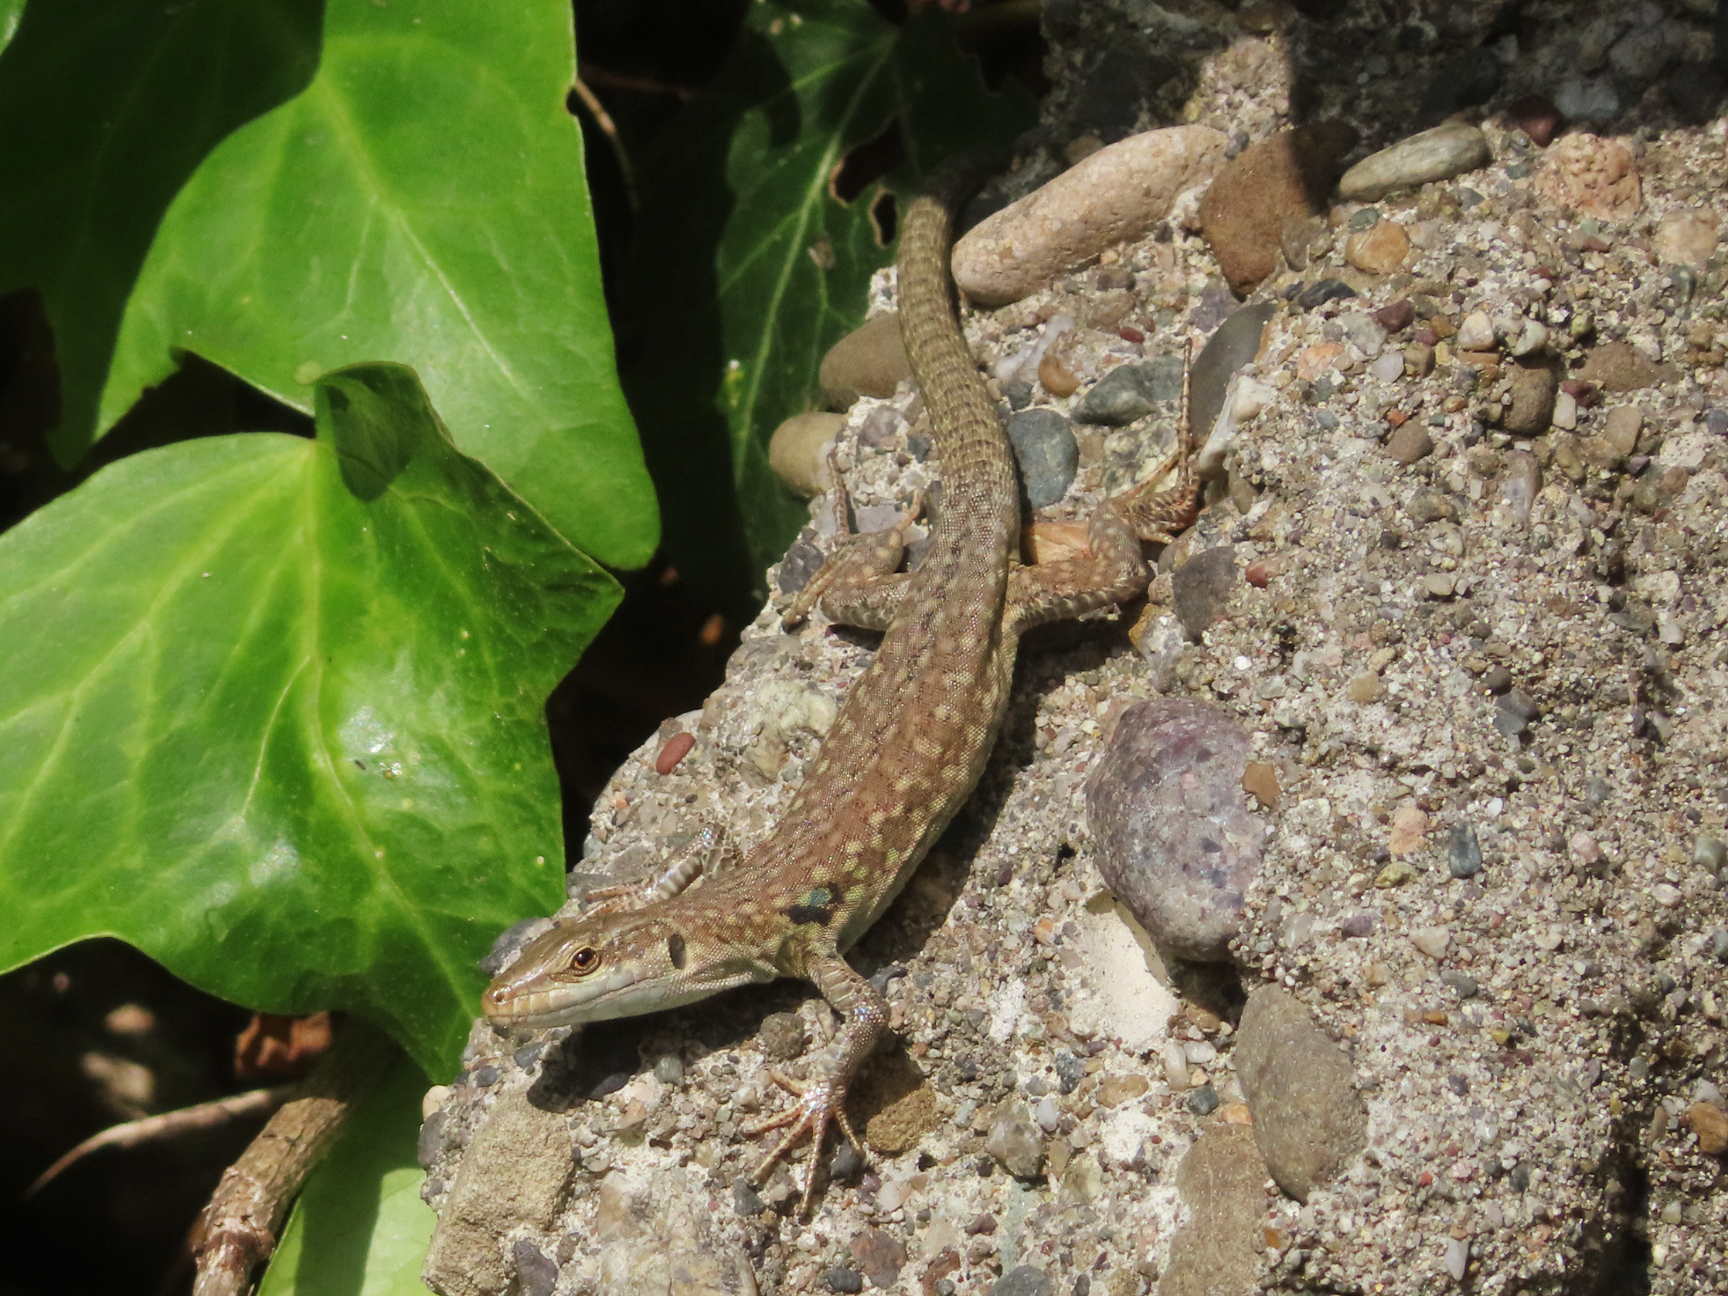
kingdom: Animalia
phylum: Chordata
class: Squamata
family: Lacertidae
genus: Podarcis
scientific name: Podarcis siculus
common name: Italian wall lizard
